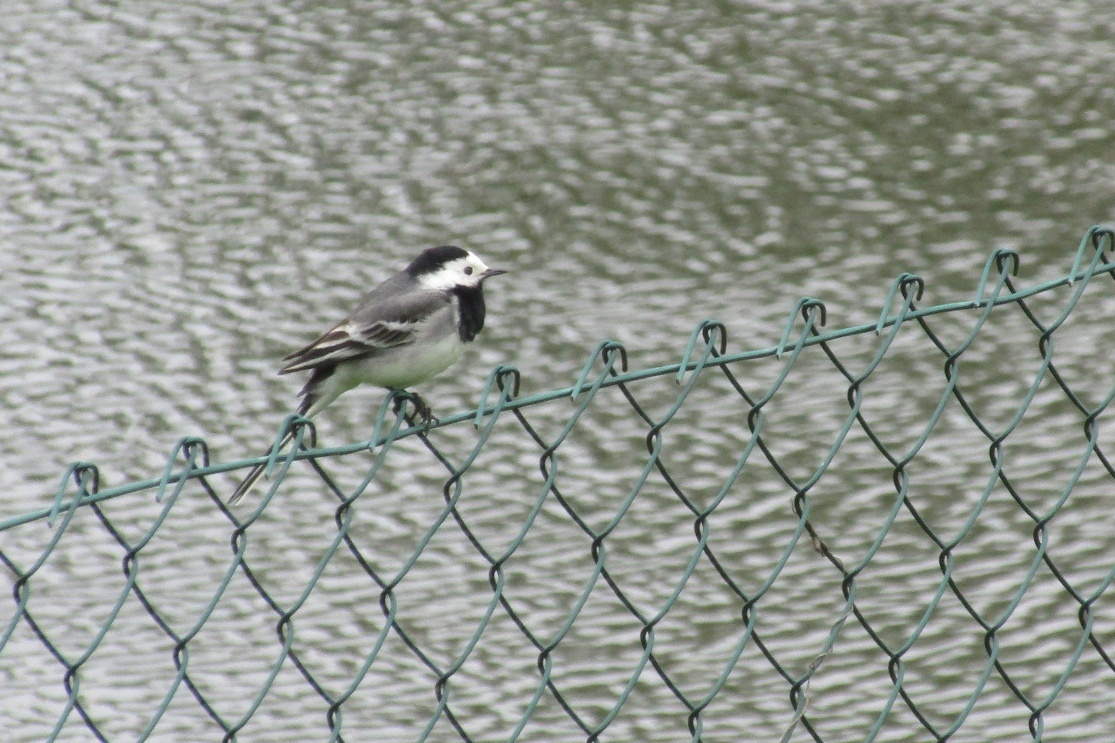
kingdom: Animalia
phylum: Chordata
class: Aves
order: Passeriformes
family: Motacillidae
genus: Motacilla
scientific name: Motacilla alba
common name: White wagtail
